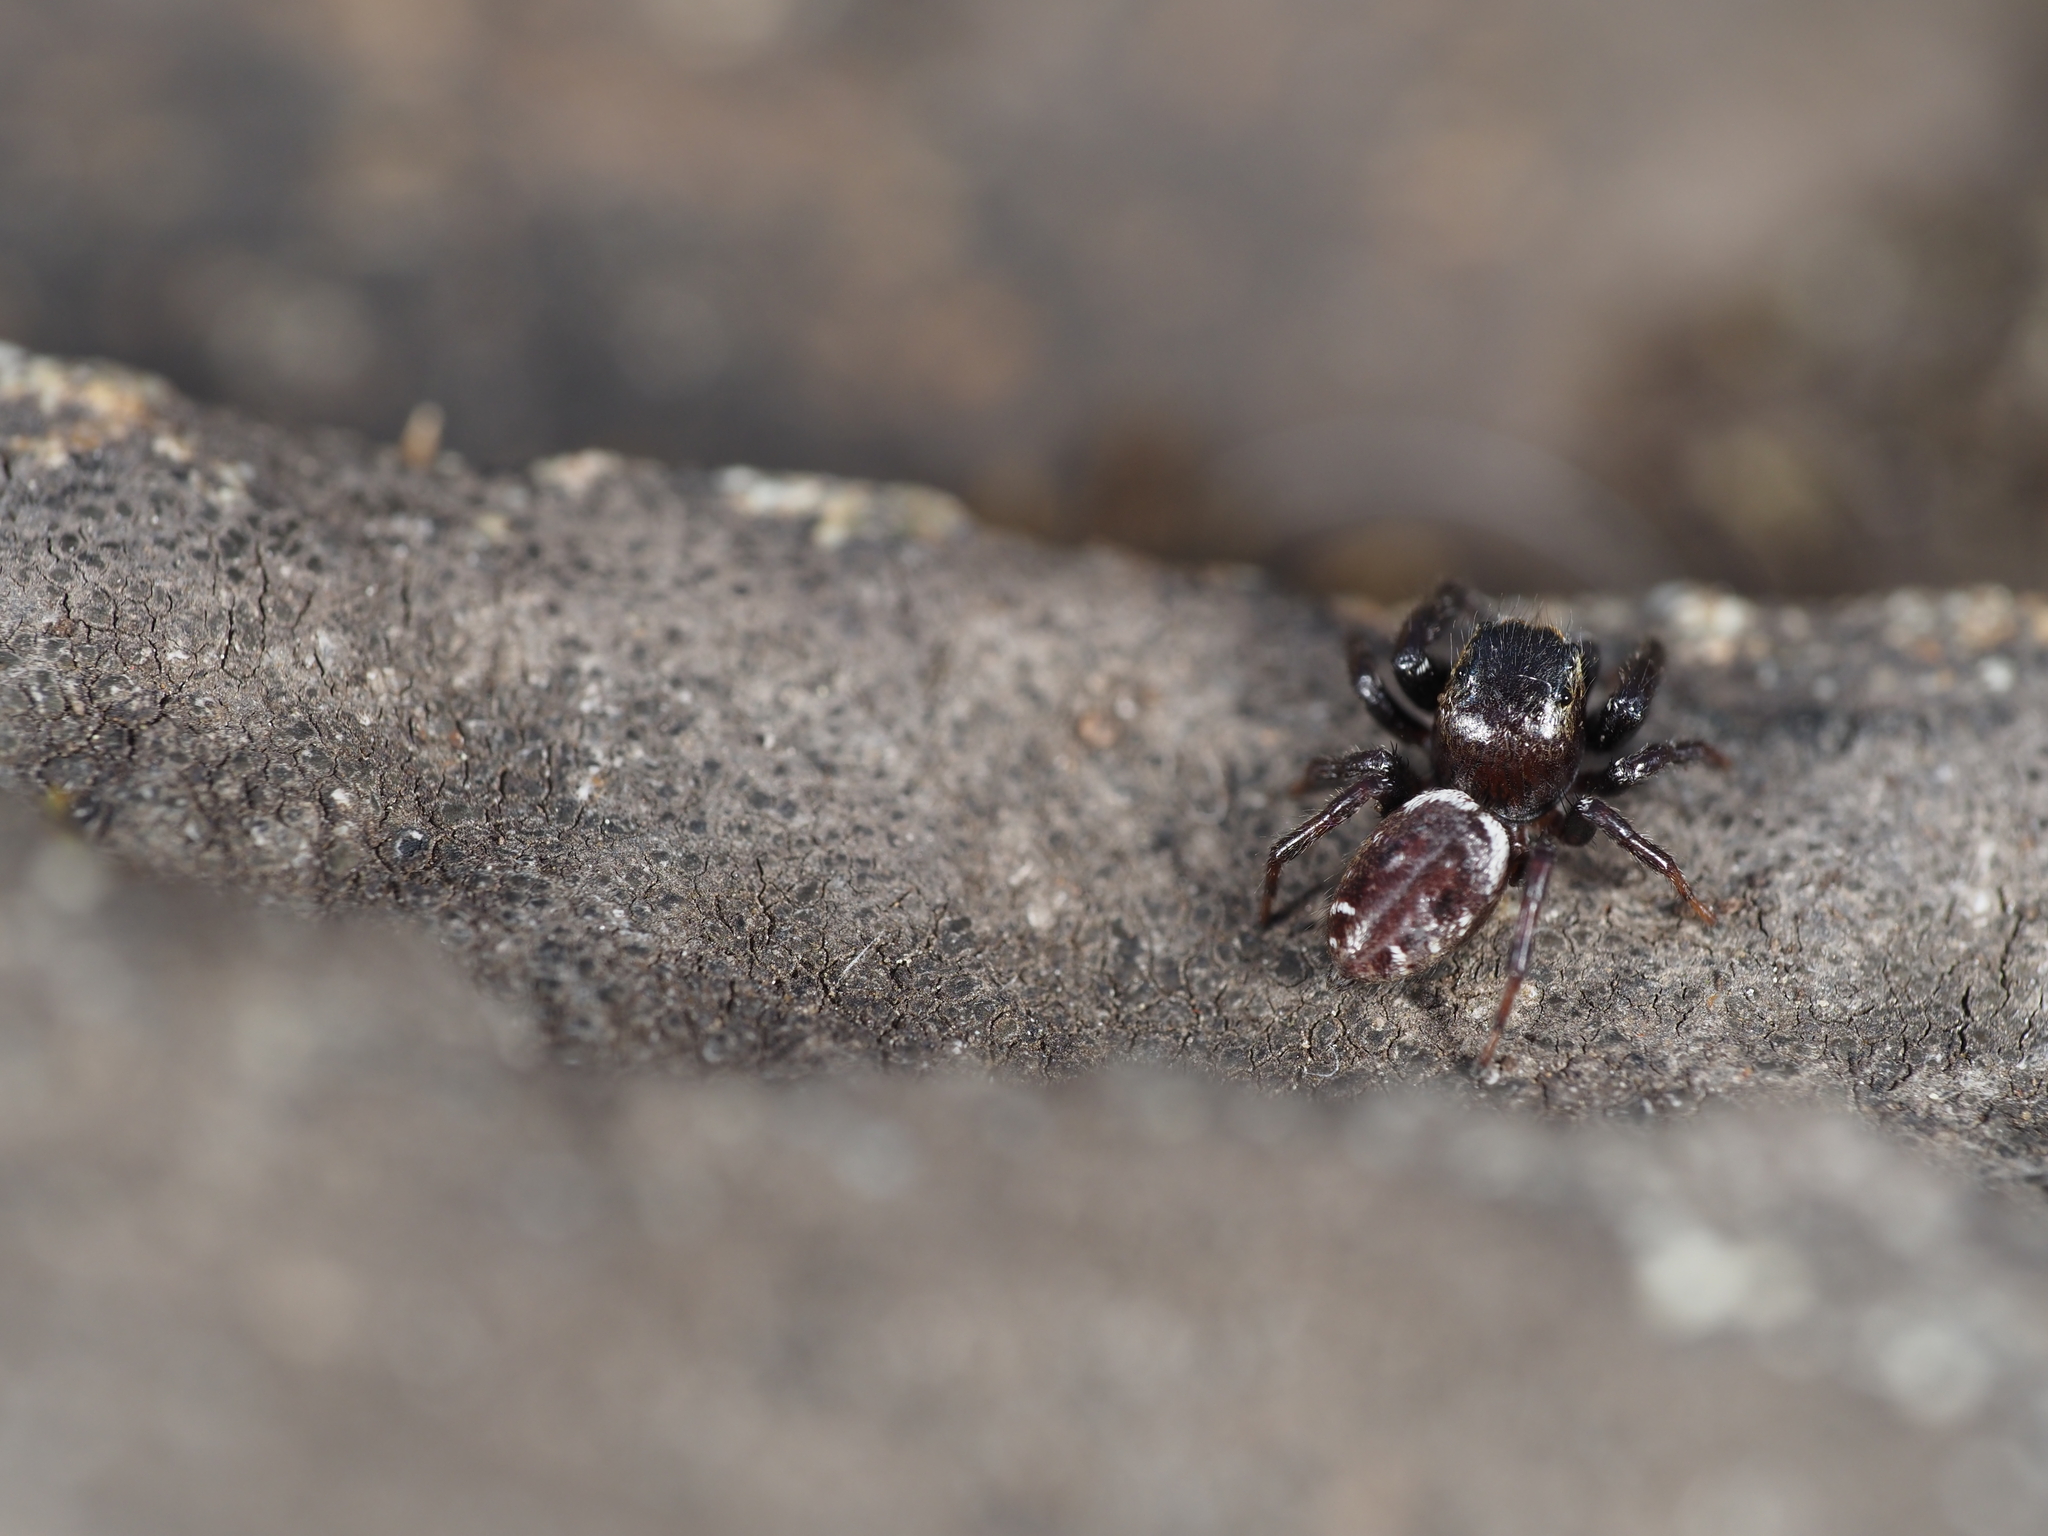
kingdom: Animalia
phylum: Arthropoda
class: Arachnida
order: Araneae
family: Salticidae
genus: Metaphidippus
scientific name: Metaphidippus manni
